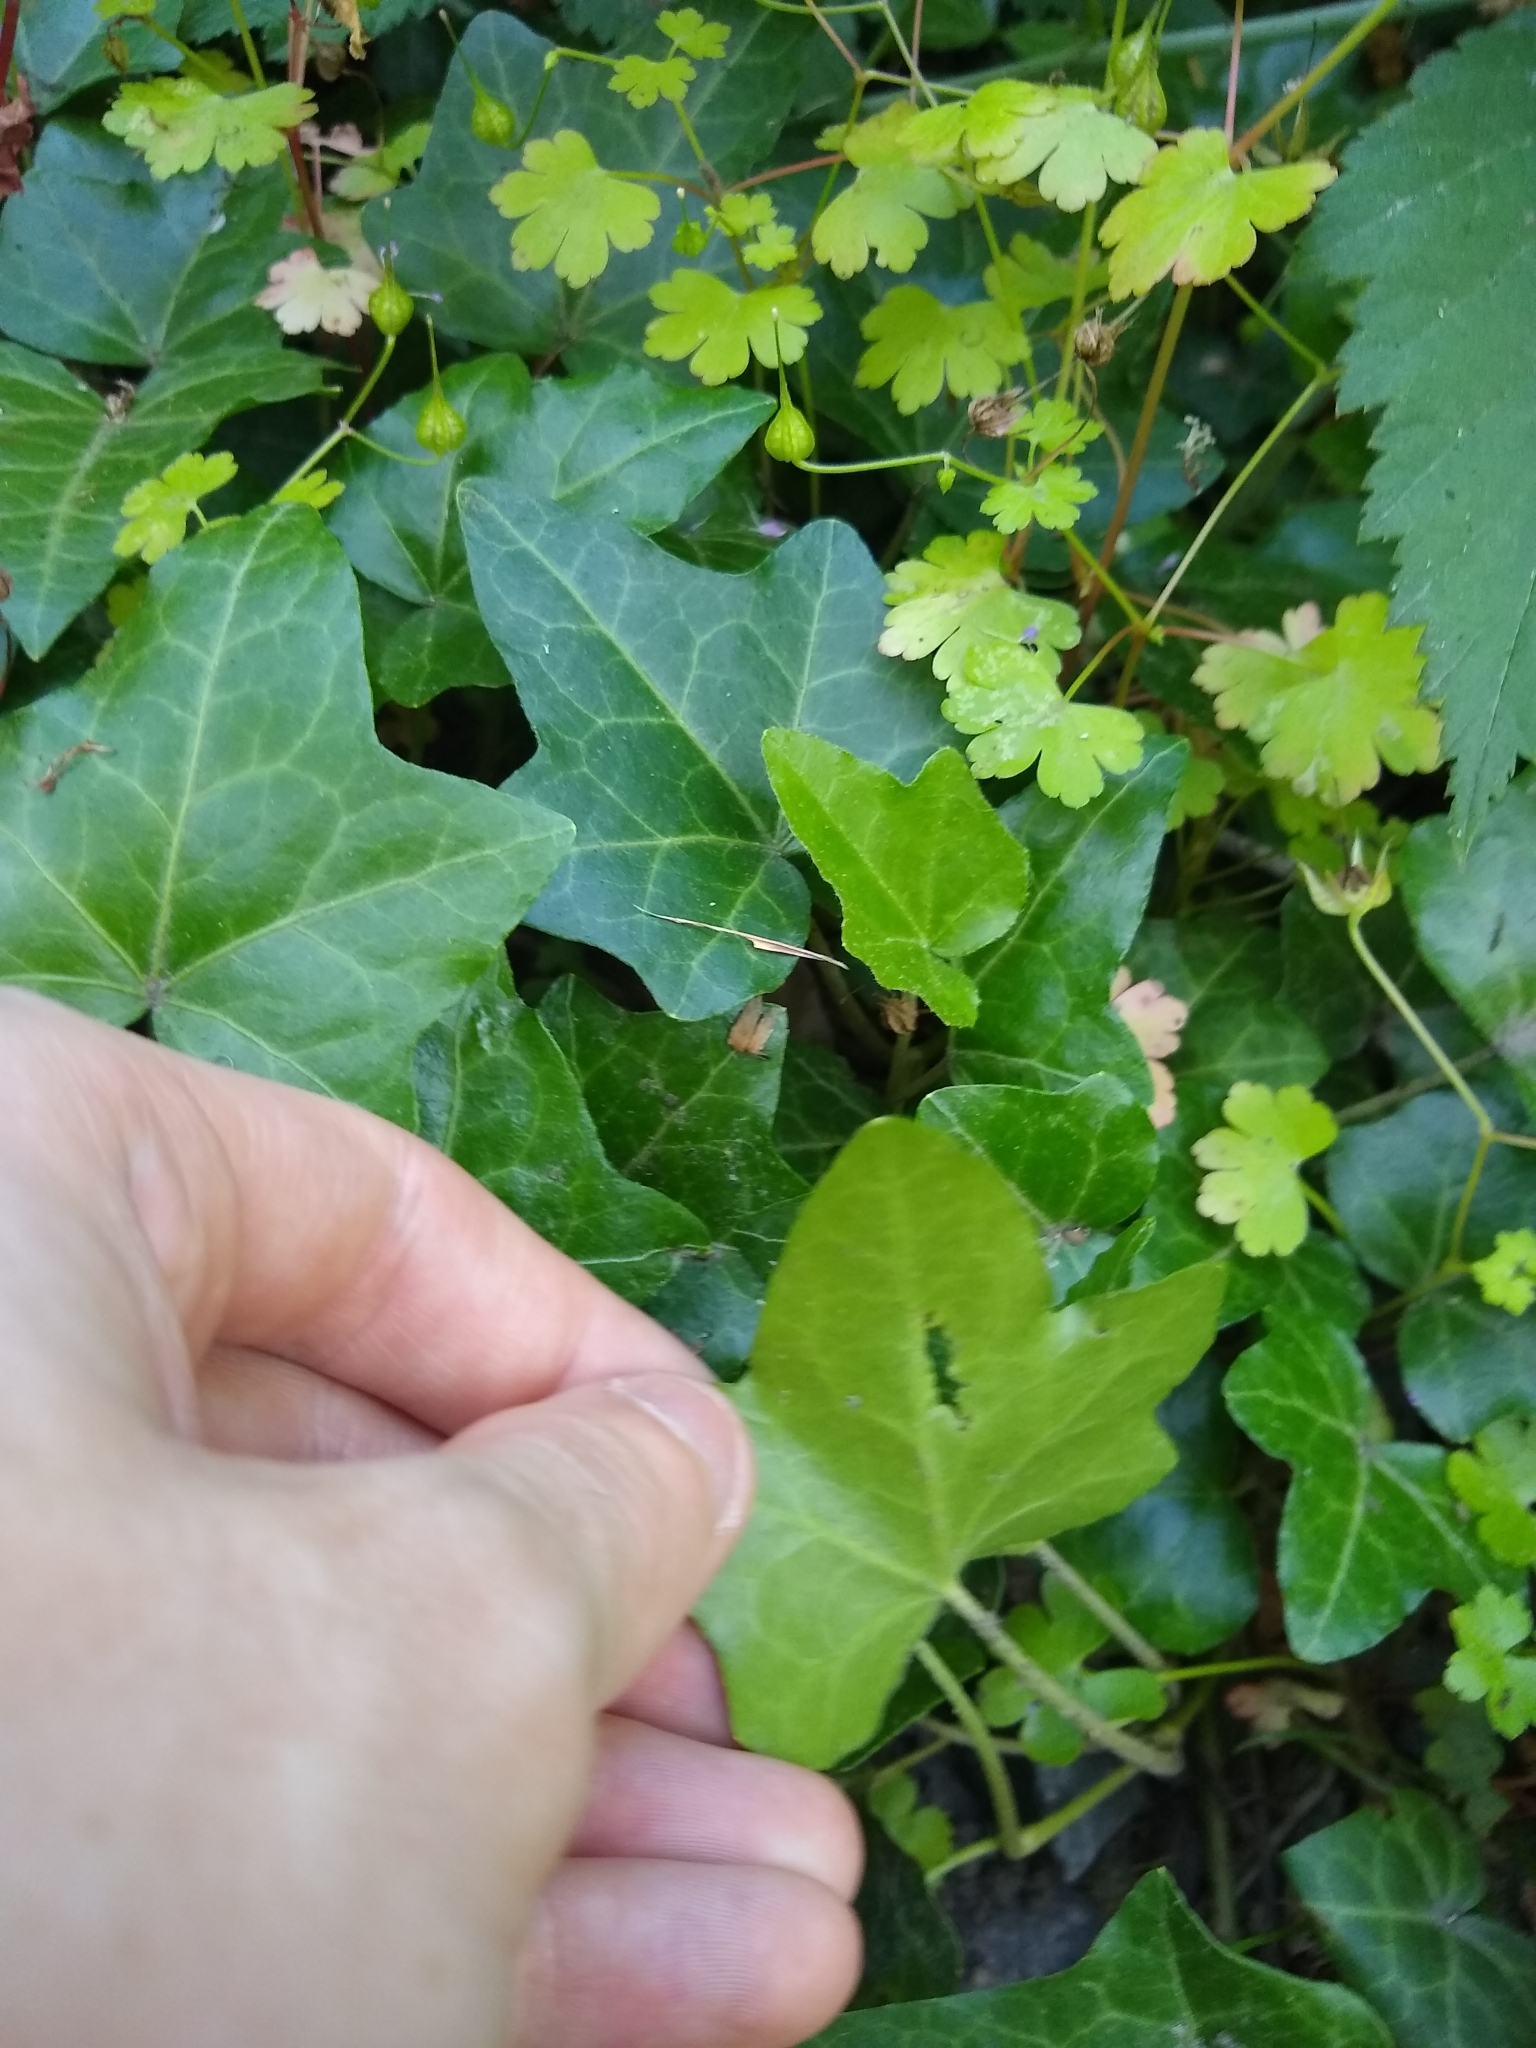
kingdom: Plantae
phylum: Tracheophyta
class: Magnoliopsida
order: Apiales
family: Araliaceae
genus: Hedera
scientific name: Hedera helix
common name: Ivy
